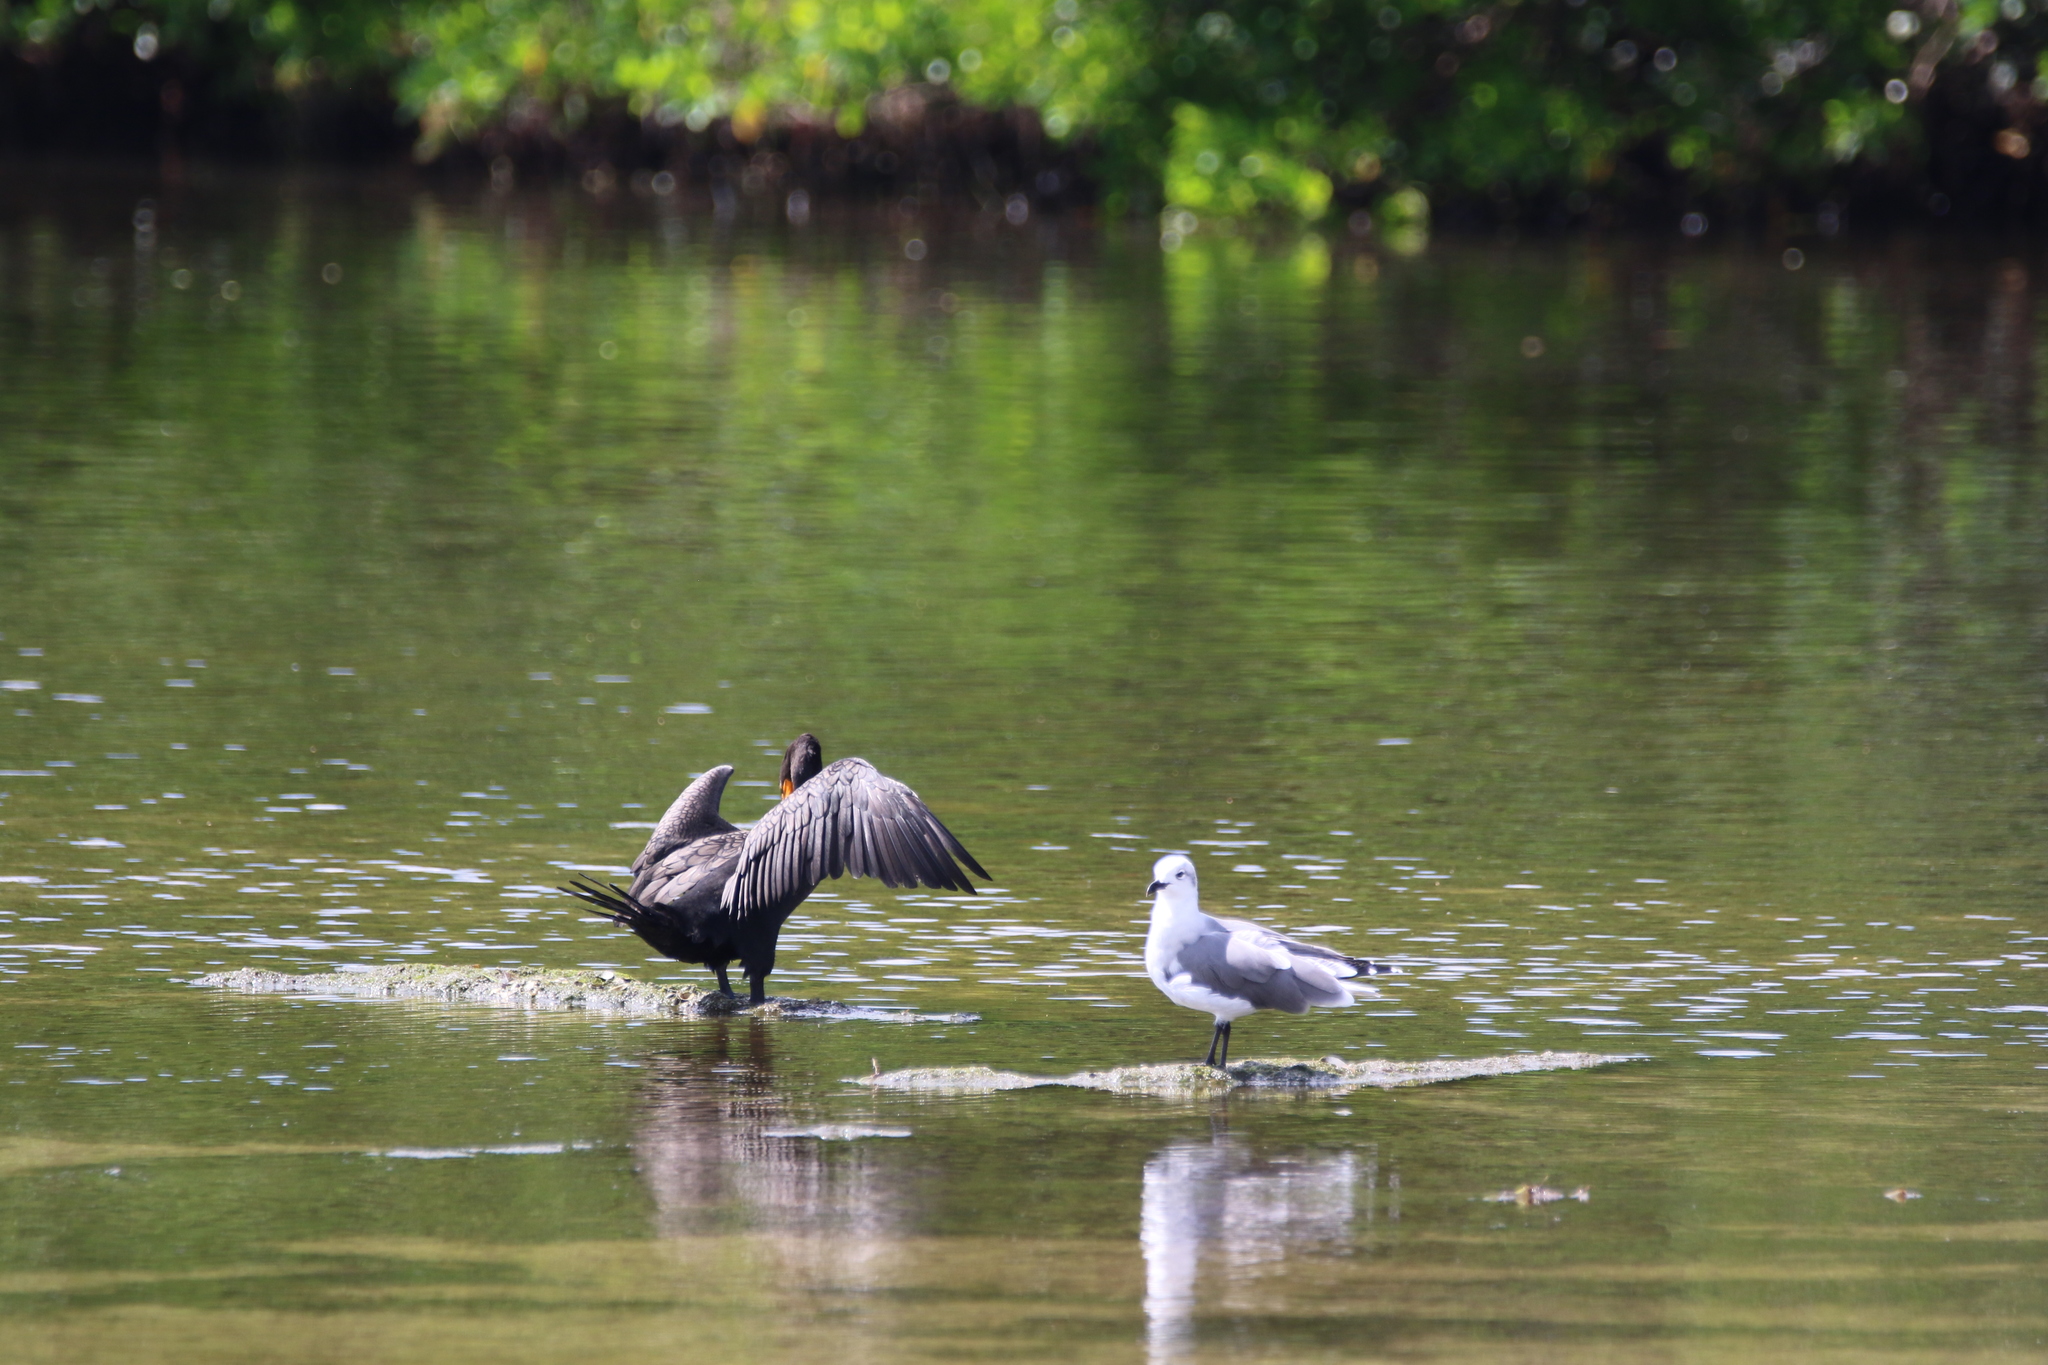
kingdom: Animalia
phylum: Chordata
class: Aves
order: Charadriiformes
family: Laridae
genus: Leucophaeus
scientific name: Leucophaeus atricilla
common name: Laughing gull
